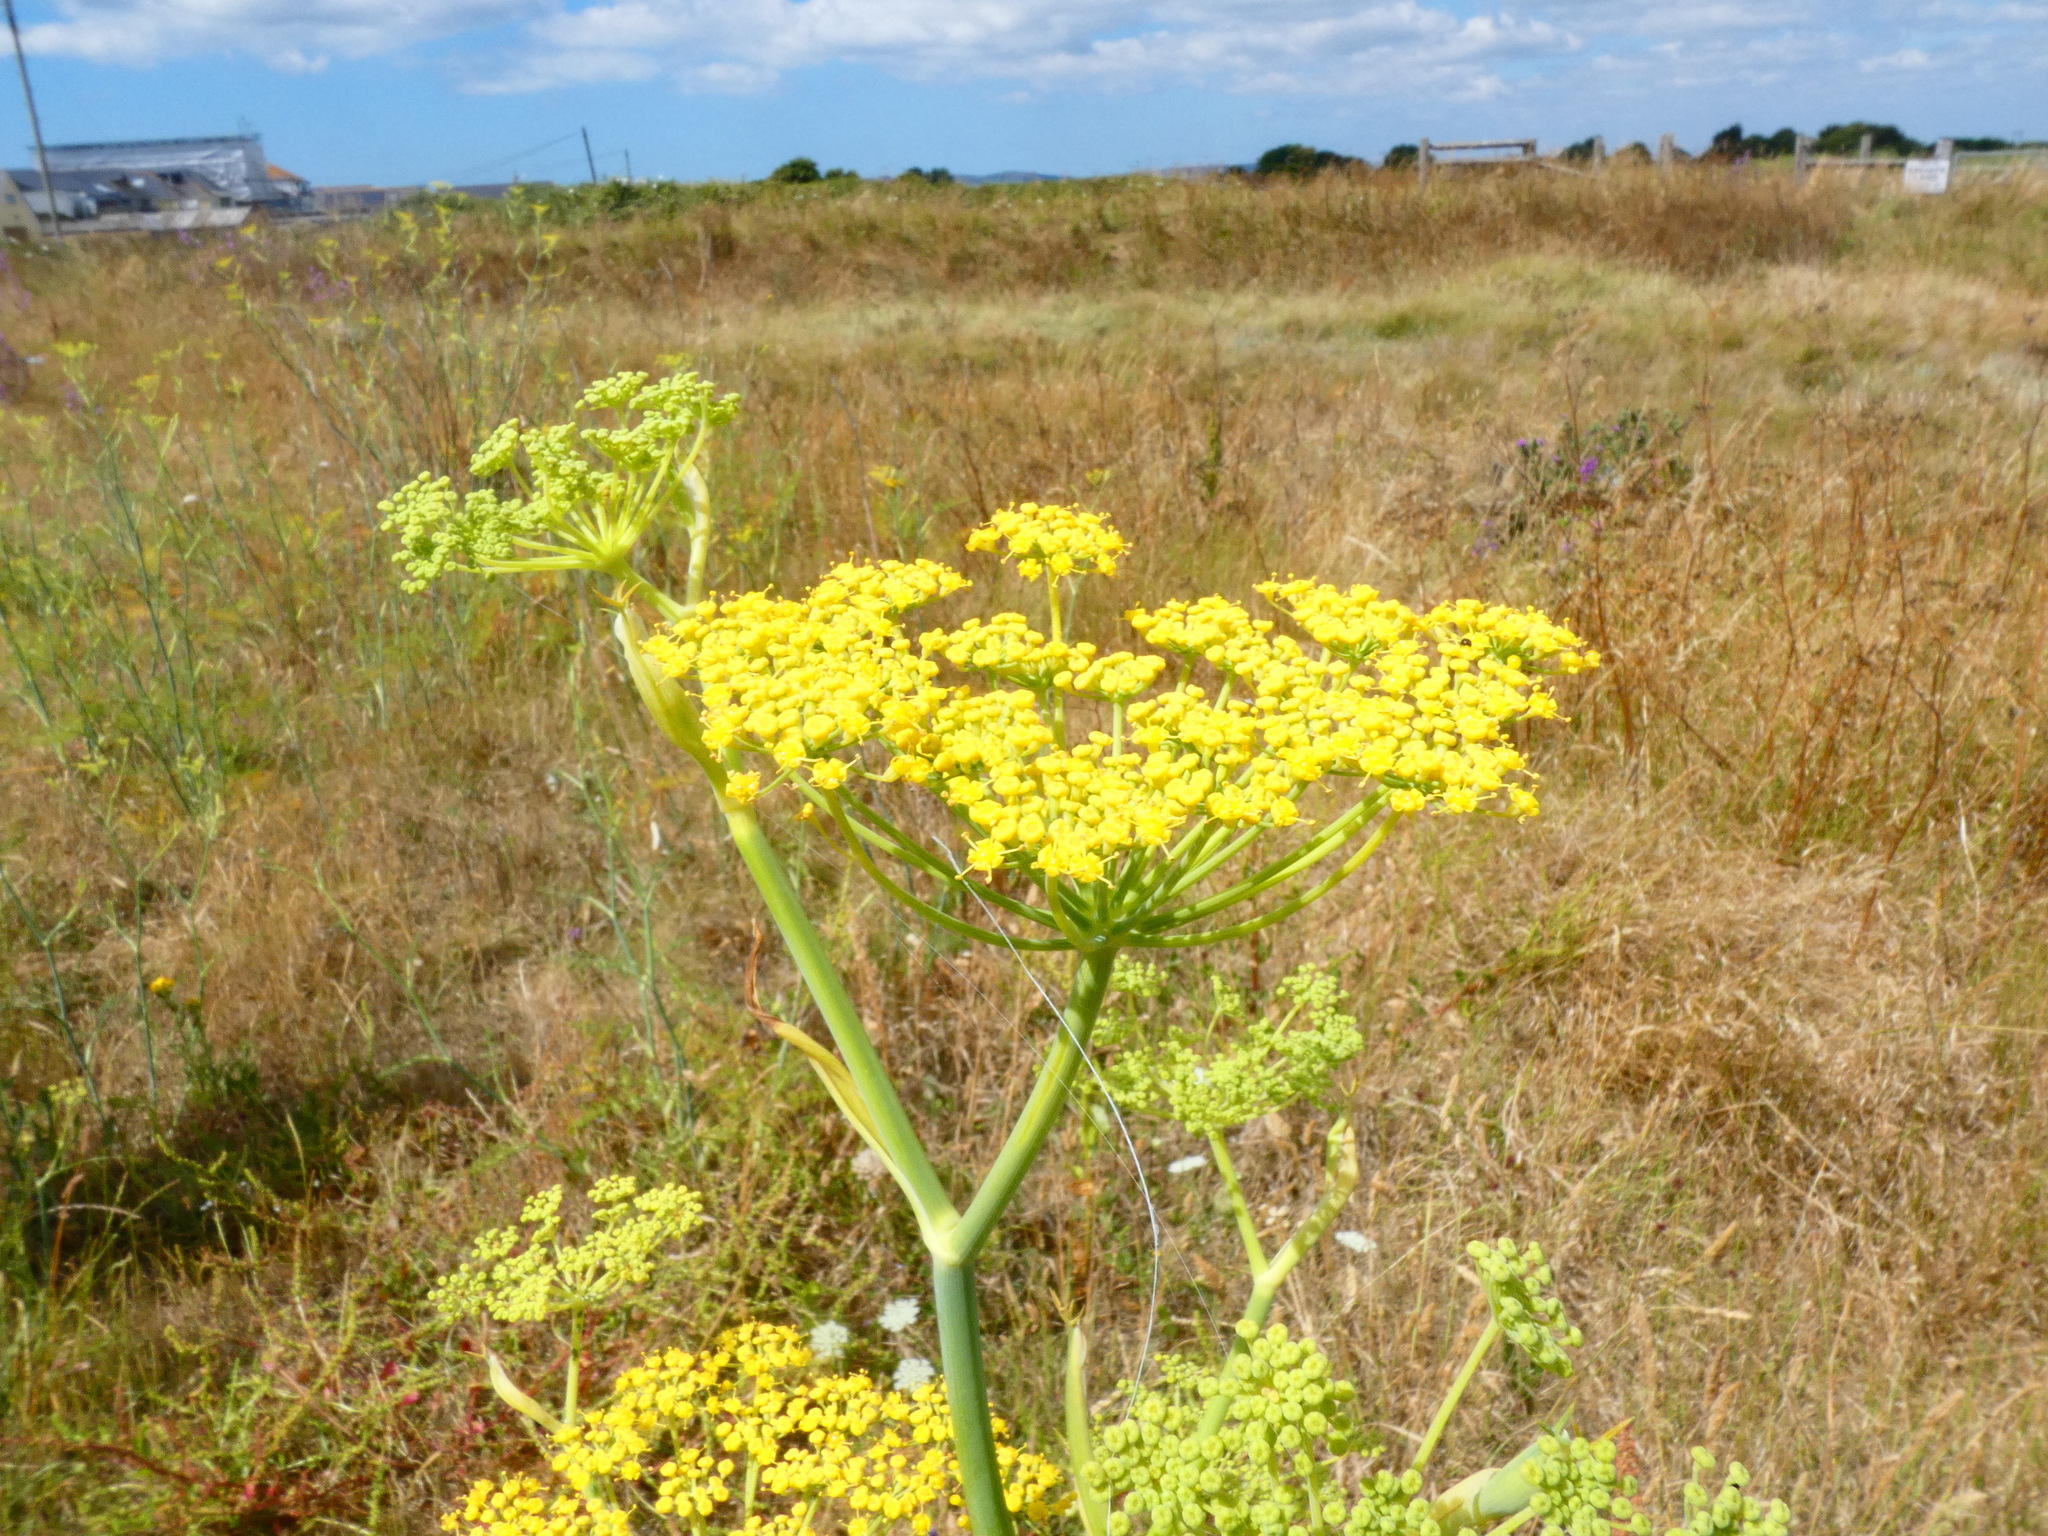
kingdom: Plantae
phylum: Tracheophyta
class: Magnoliopsida
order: Apiales
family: Apiaceae
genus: Foeniculum
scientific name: Foeniculum vulgare
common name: Fennel
